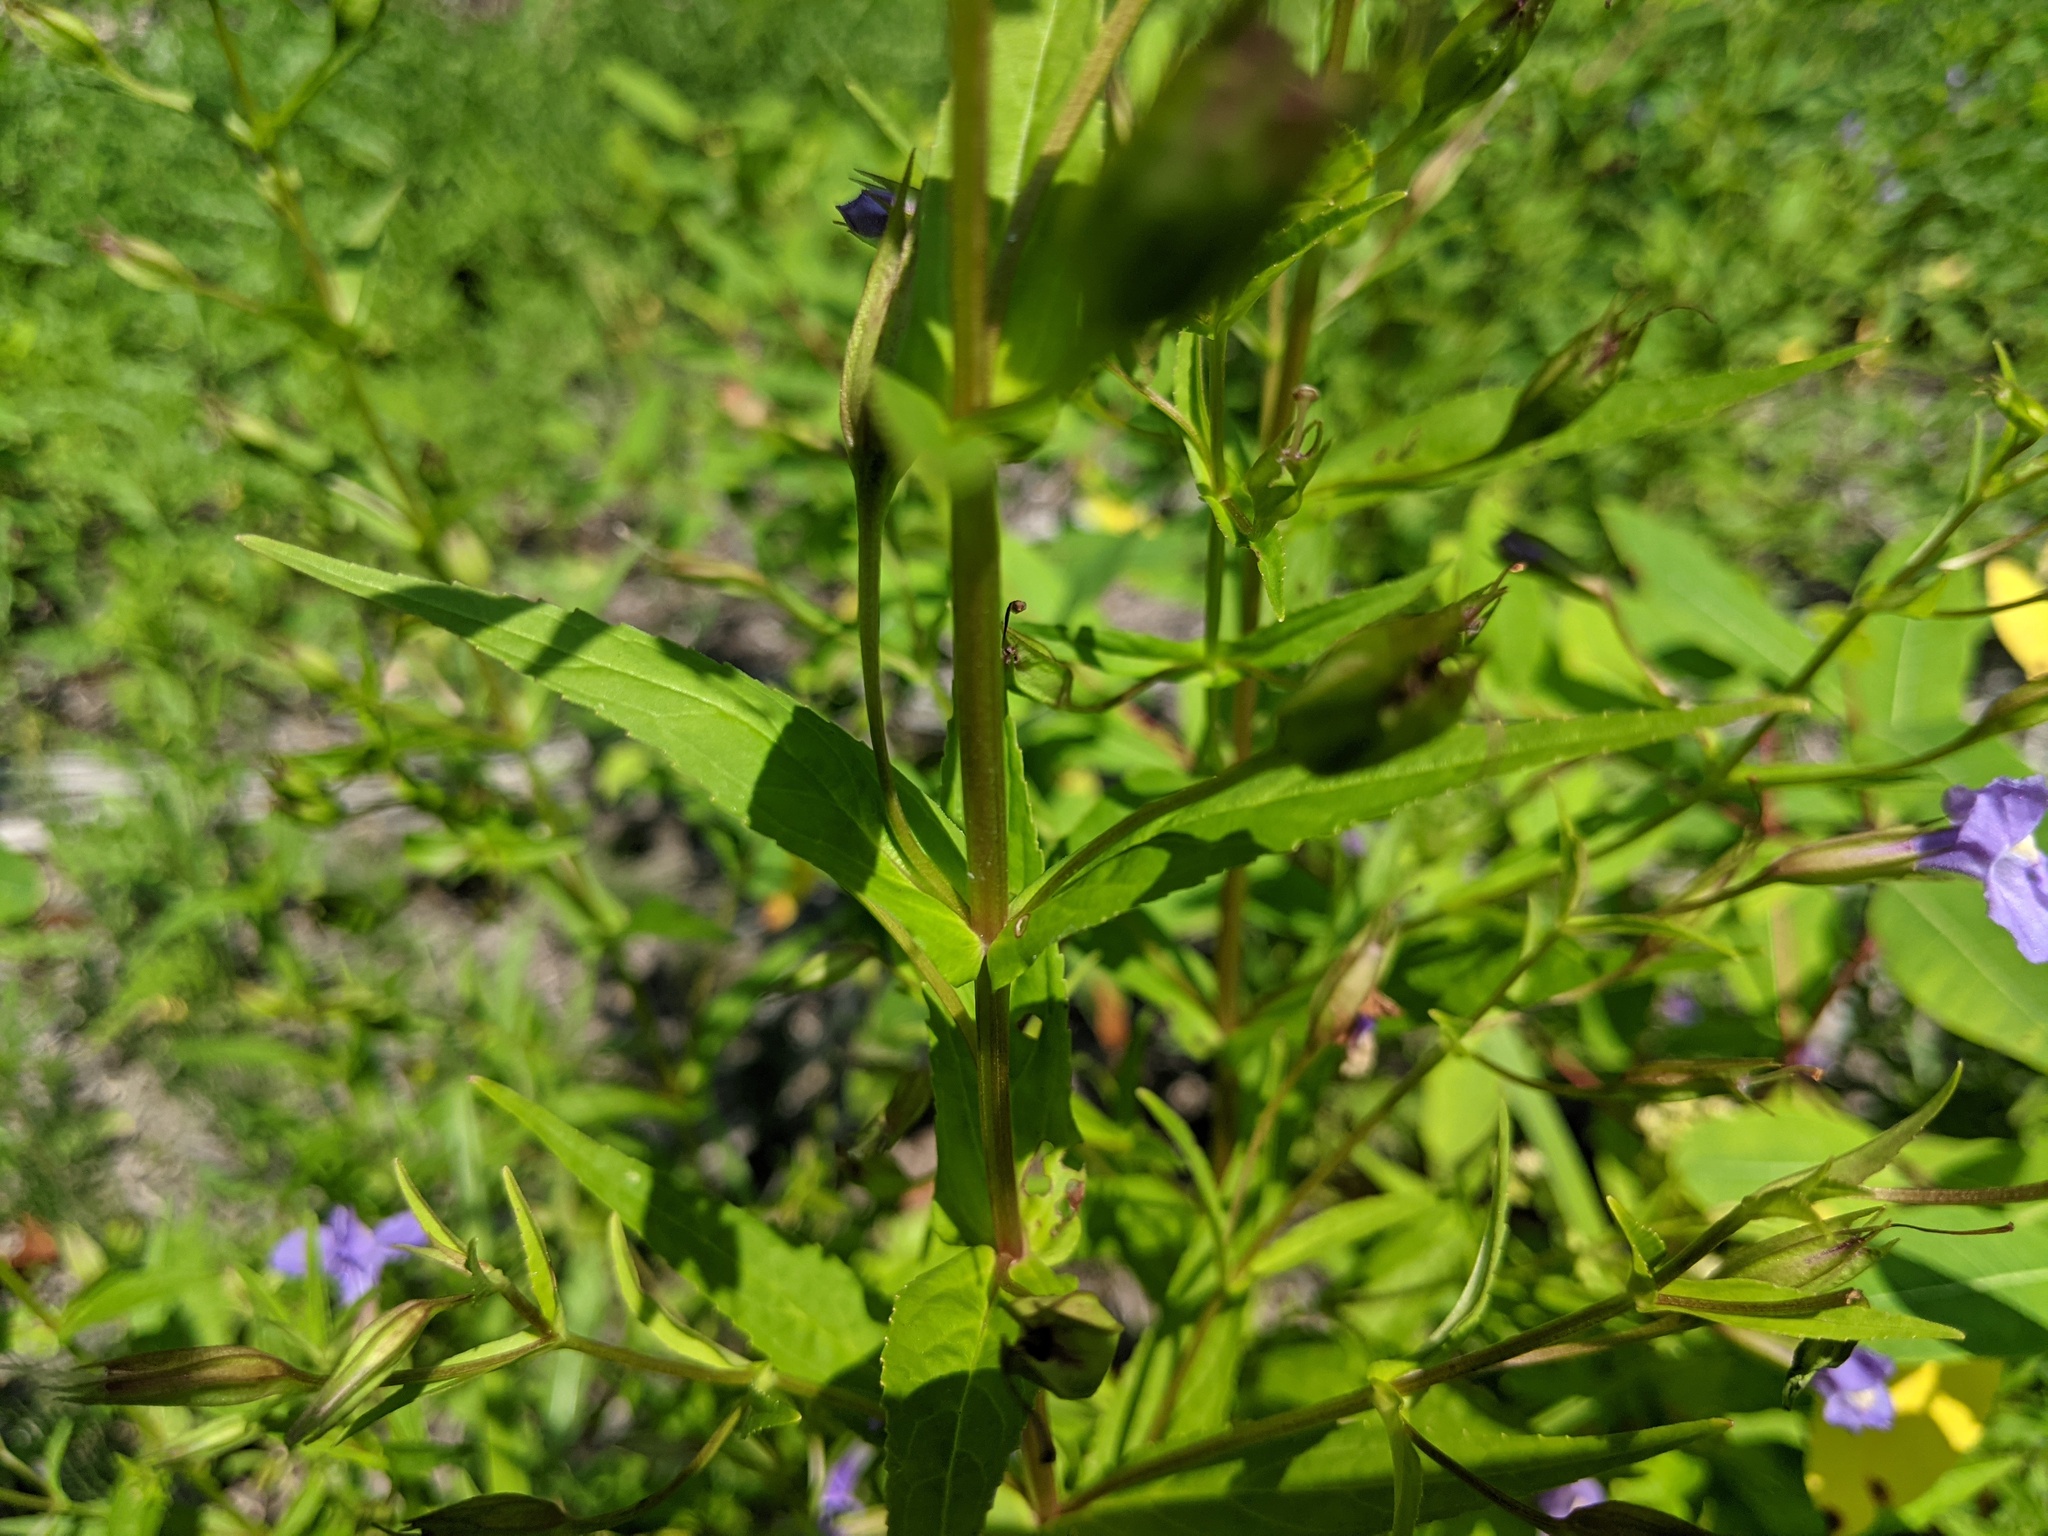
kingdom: Plantae
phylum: Tracheophyta
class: Magnoliopsida
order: Lamiales
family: Phrymaceae
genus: Mimulus
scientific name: Mimulus ringens
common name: Allegheny monkeyflower
